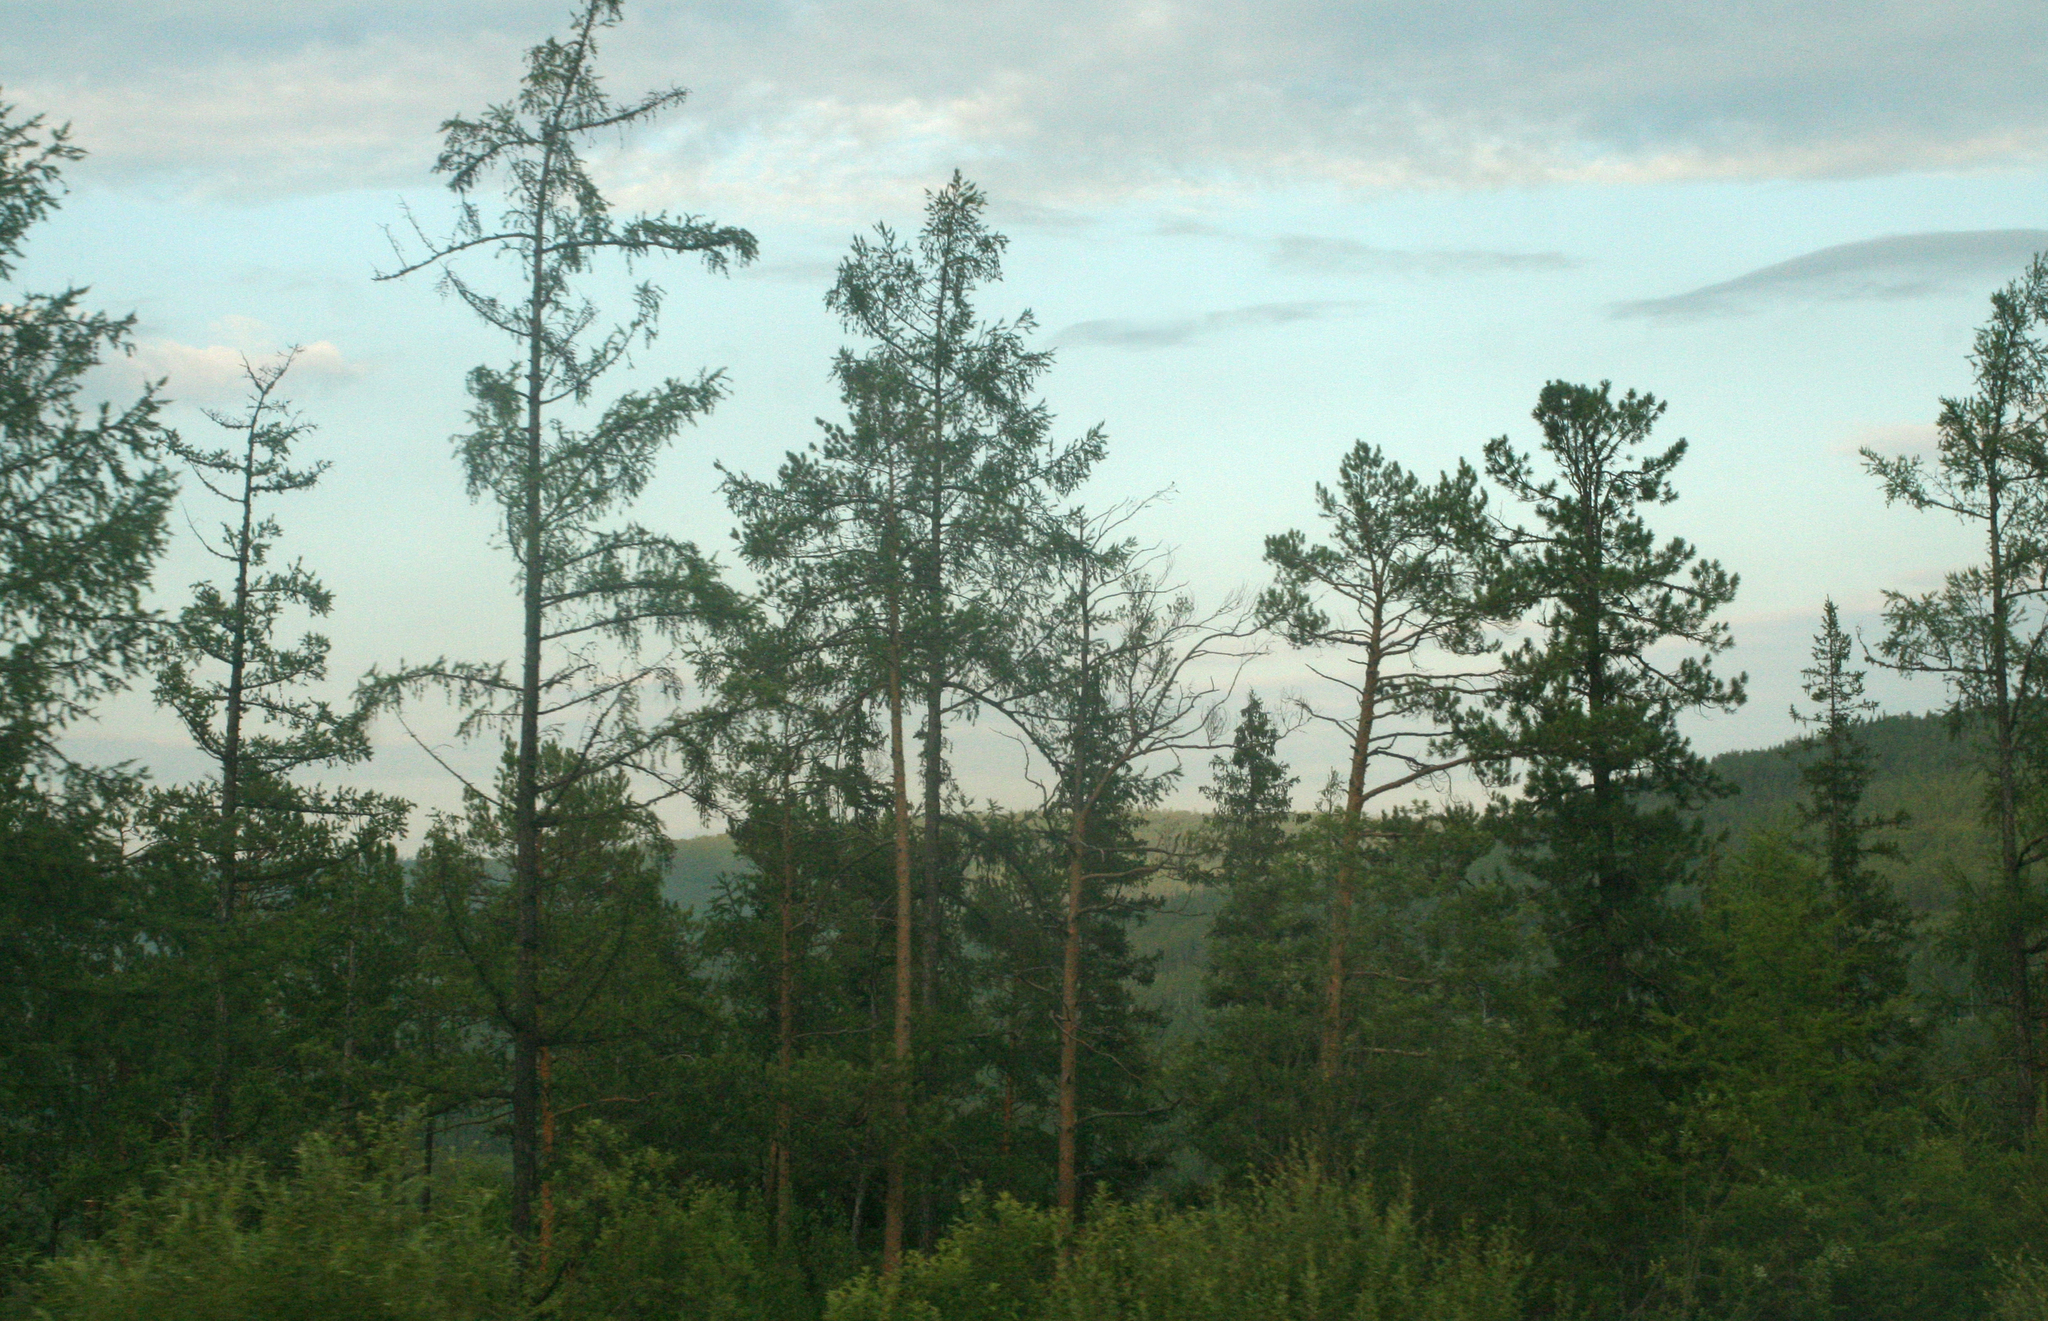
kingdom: Plantae
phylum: Tracheophyta
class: Pinopsida
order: Pinales
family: Pinaceae
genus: Pinus
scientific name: Pinus sibirica
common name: Siberian pine
